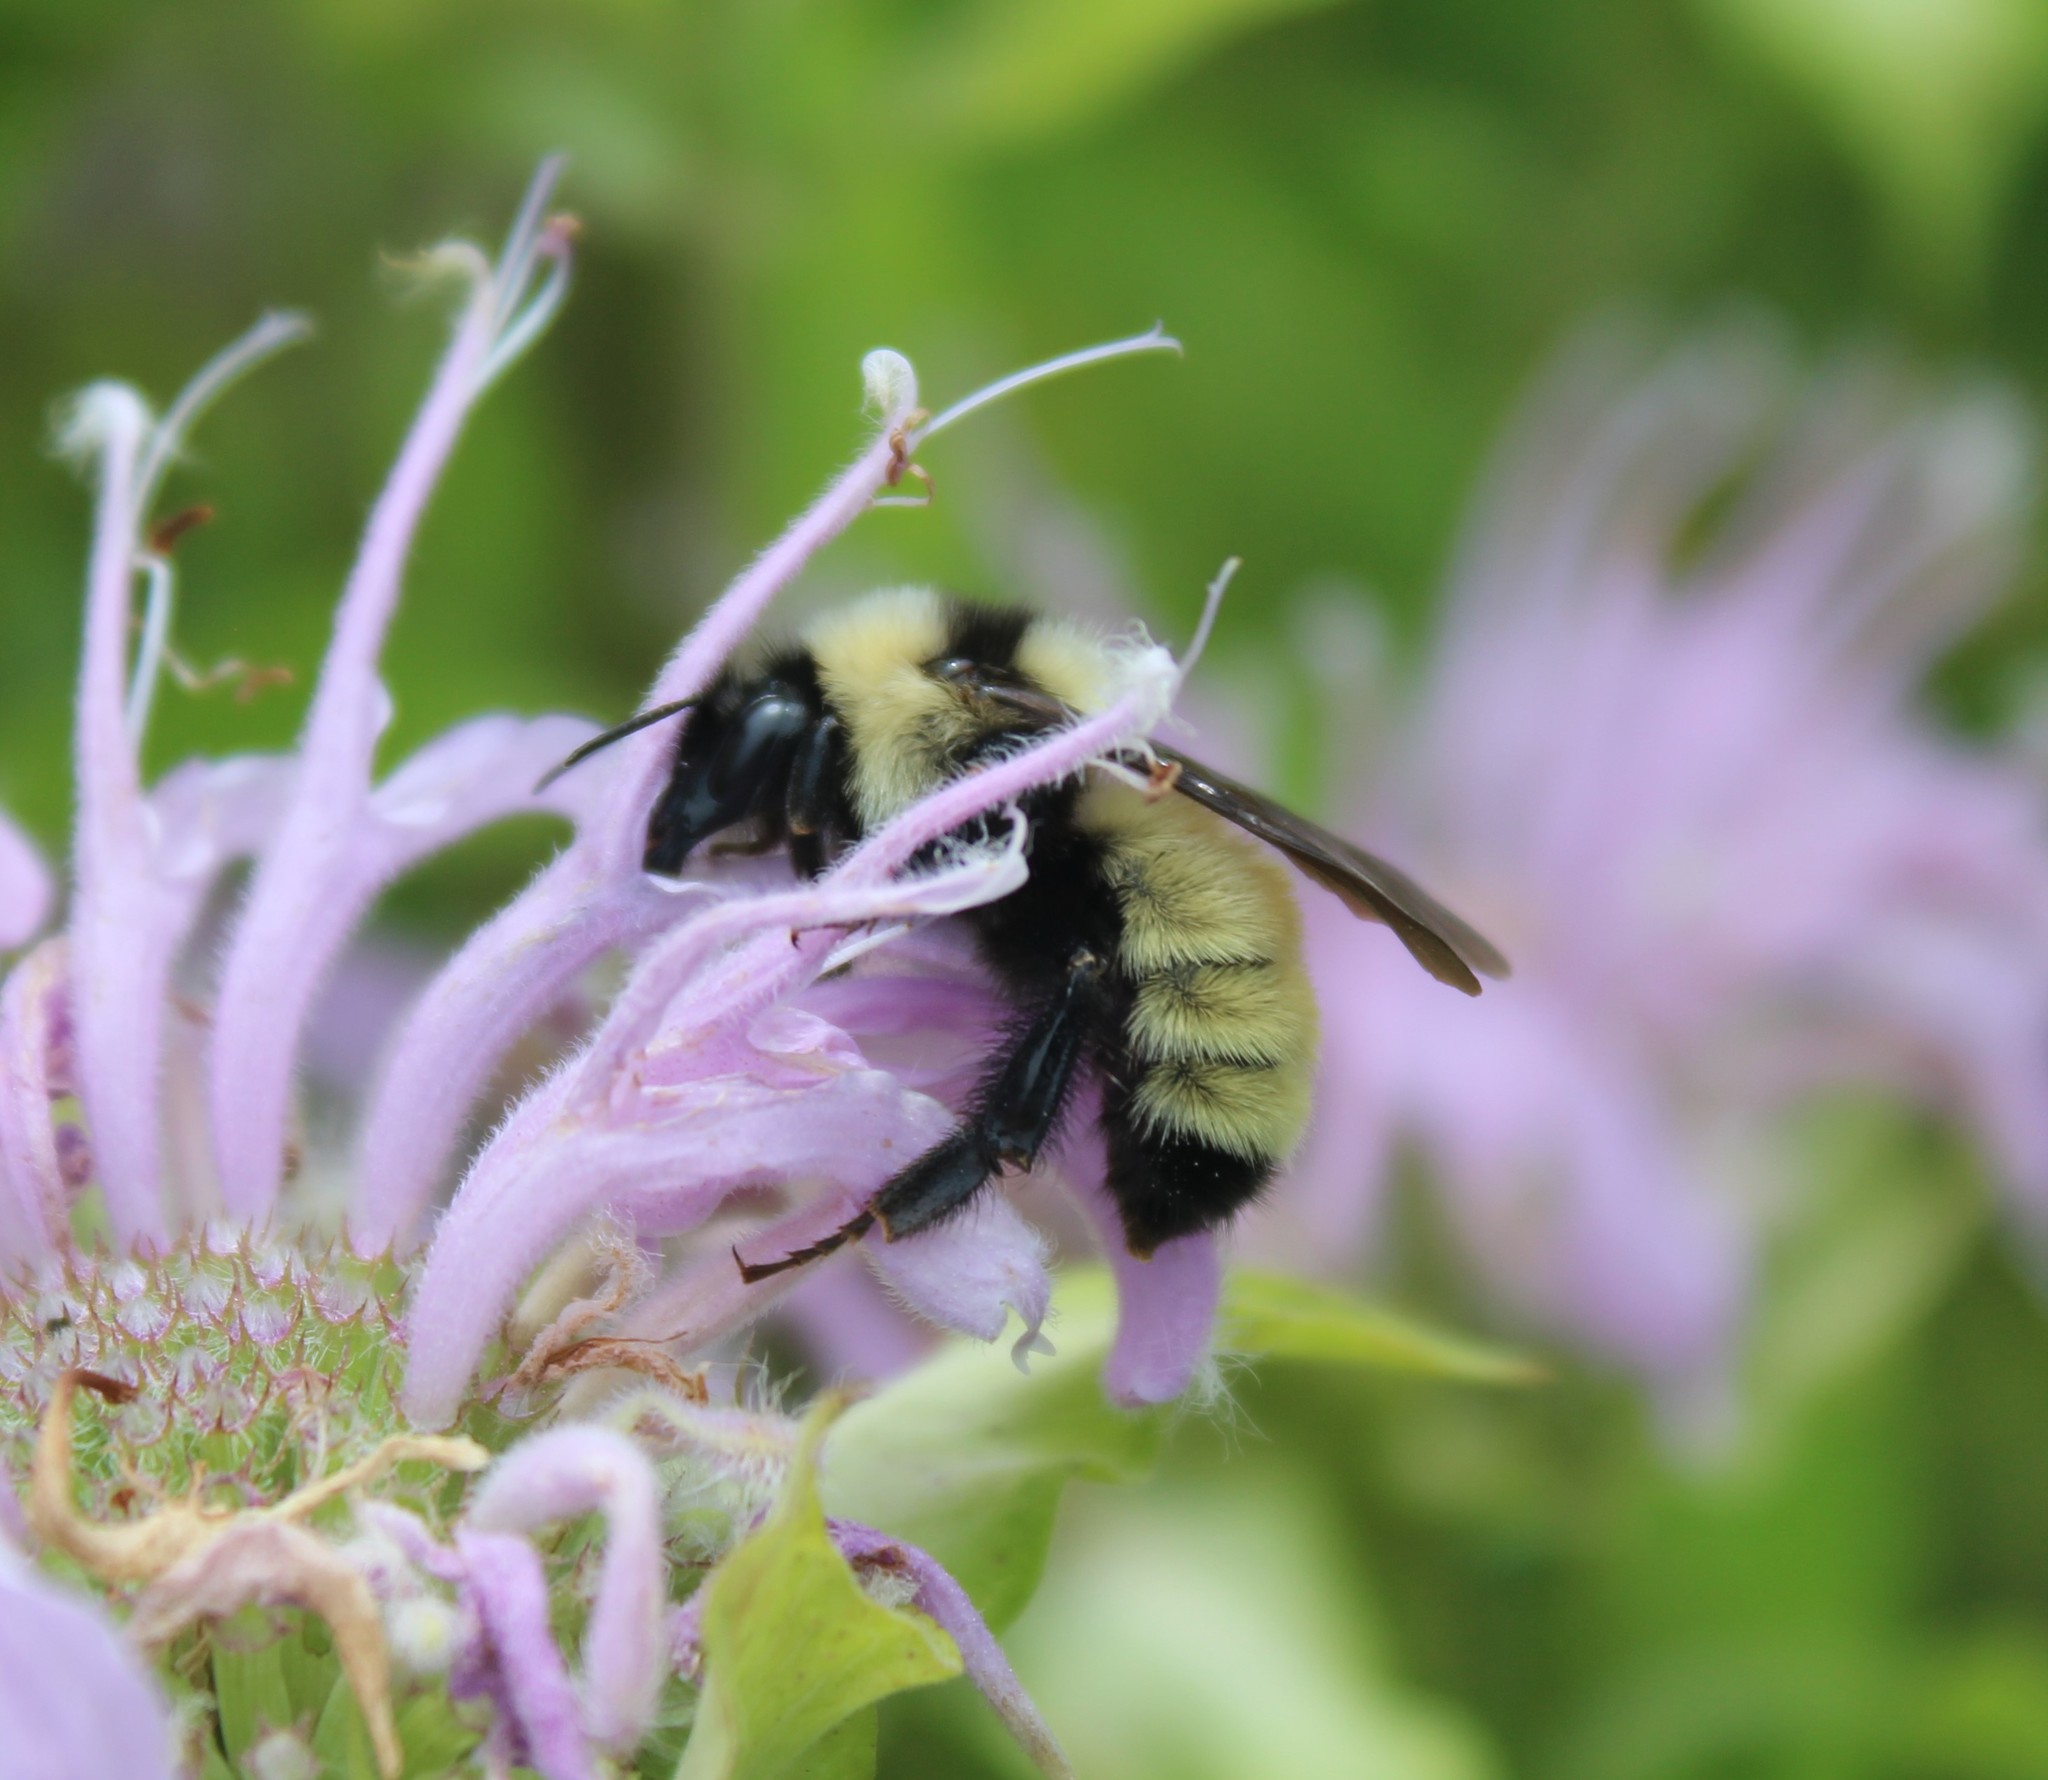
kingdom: Animalia
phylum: Arthropoda
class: Insecta
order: Hymenoptera
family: Apidae
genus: Bombus
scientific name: Bombus fervidus
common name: Yellow bumble bee
